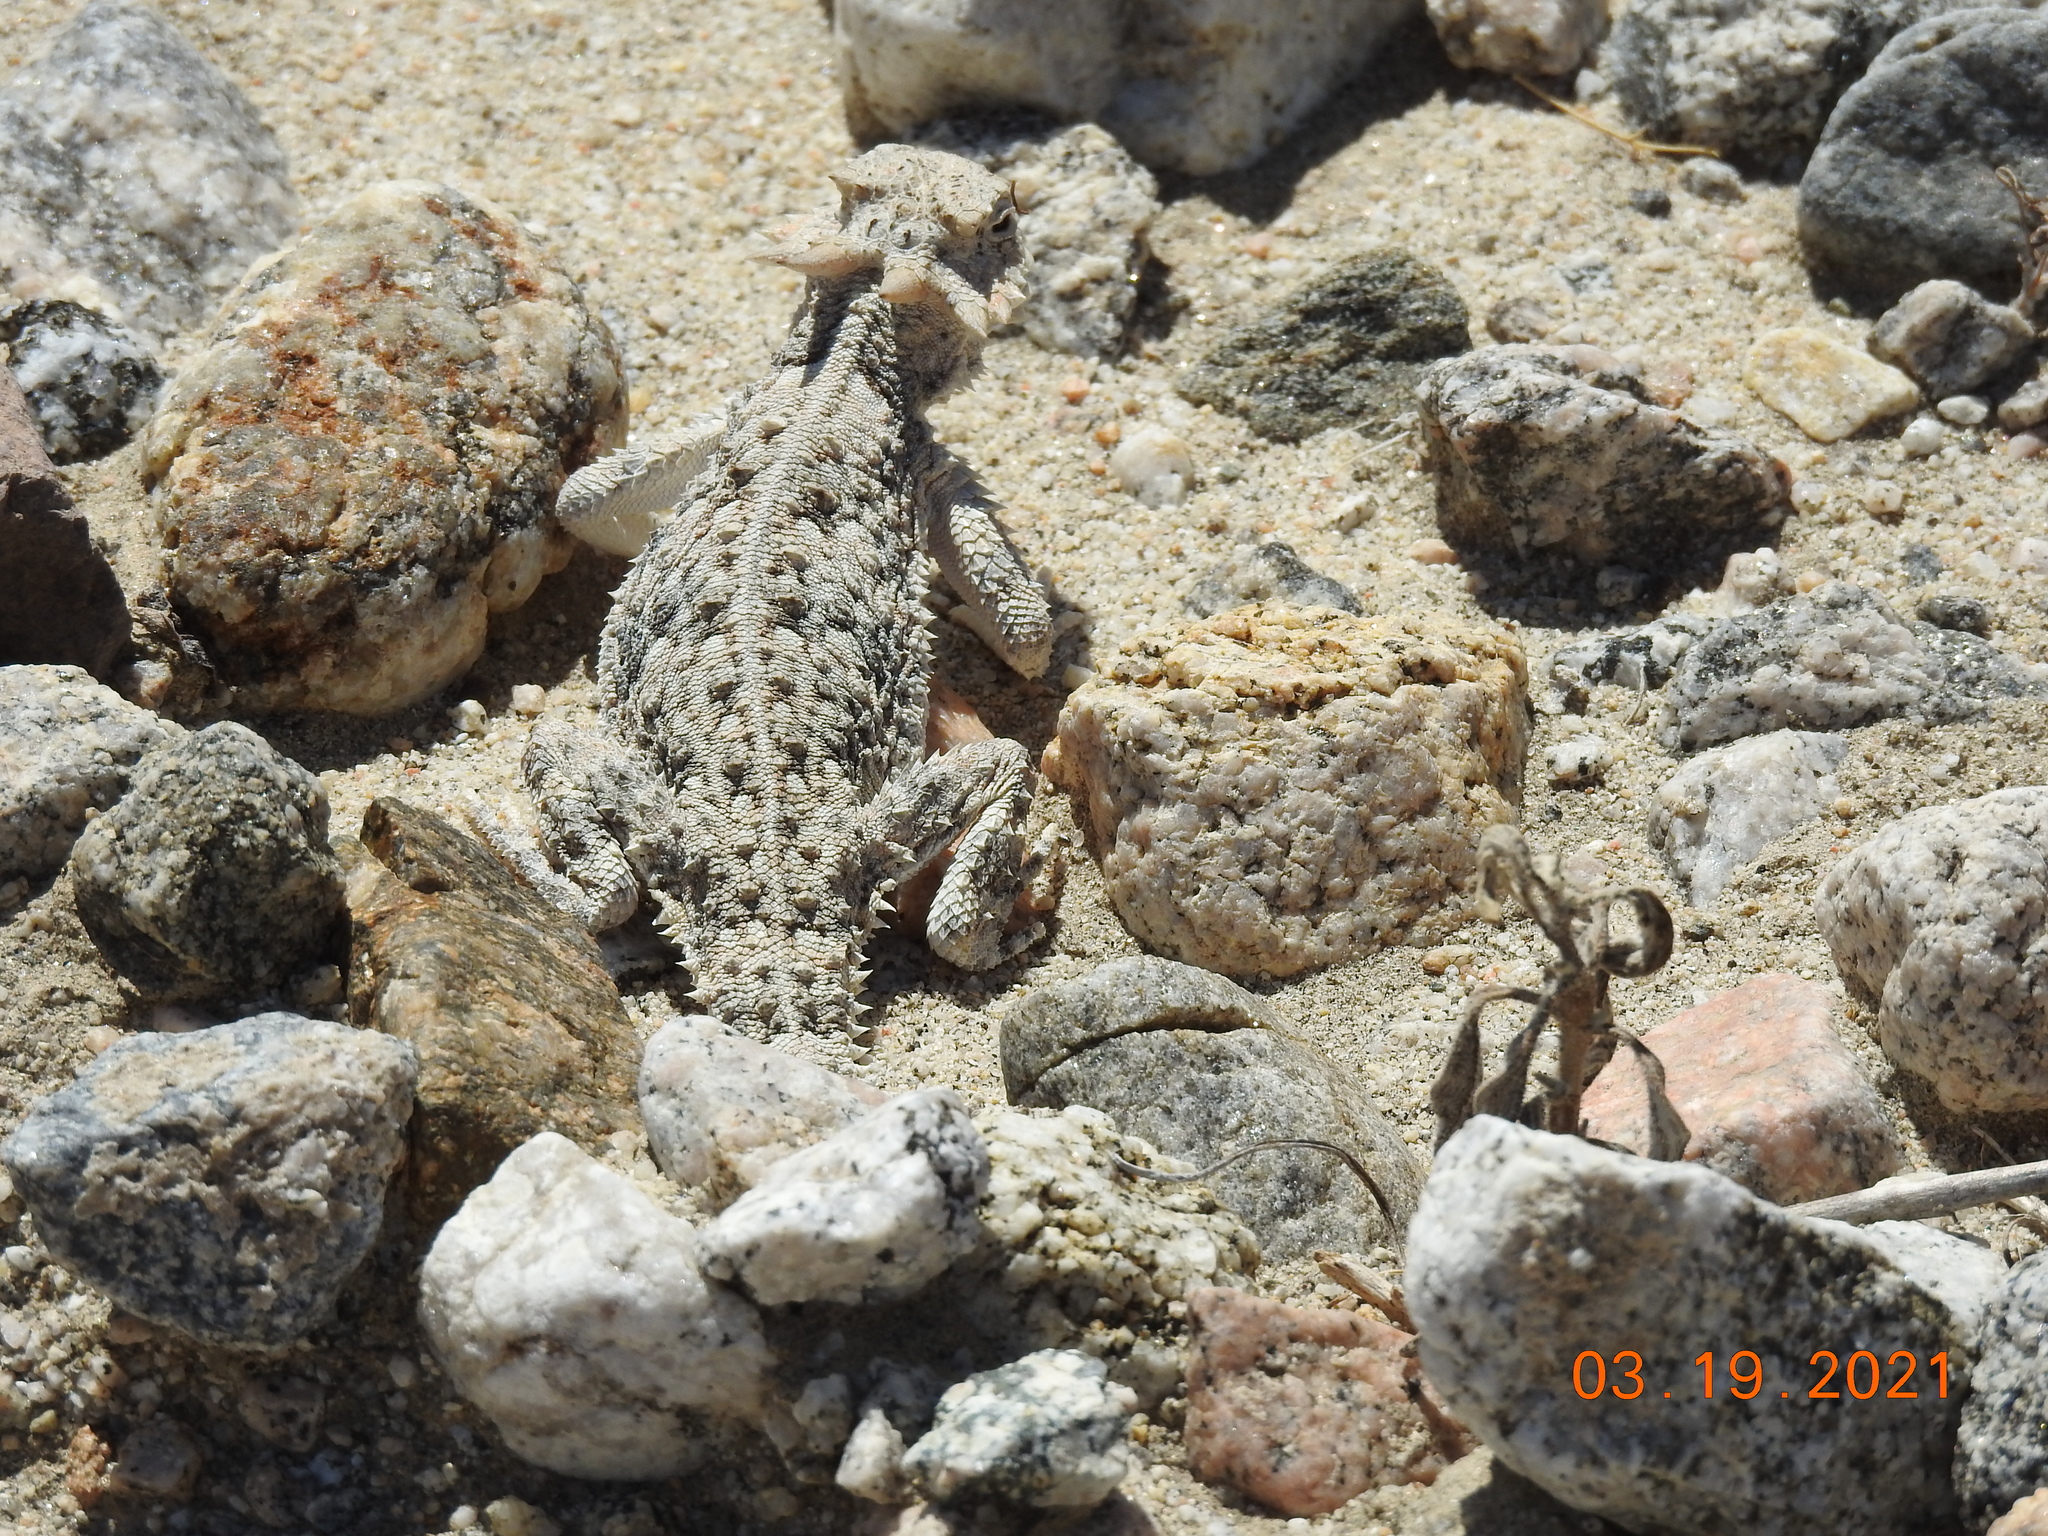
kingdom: Animalia
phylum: Chordata
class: Squamata
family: Phrynosomatidae
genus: Phrynosoma
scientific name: Phrynosoma platyrhinos
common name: Desert horned lizard
